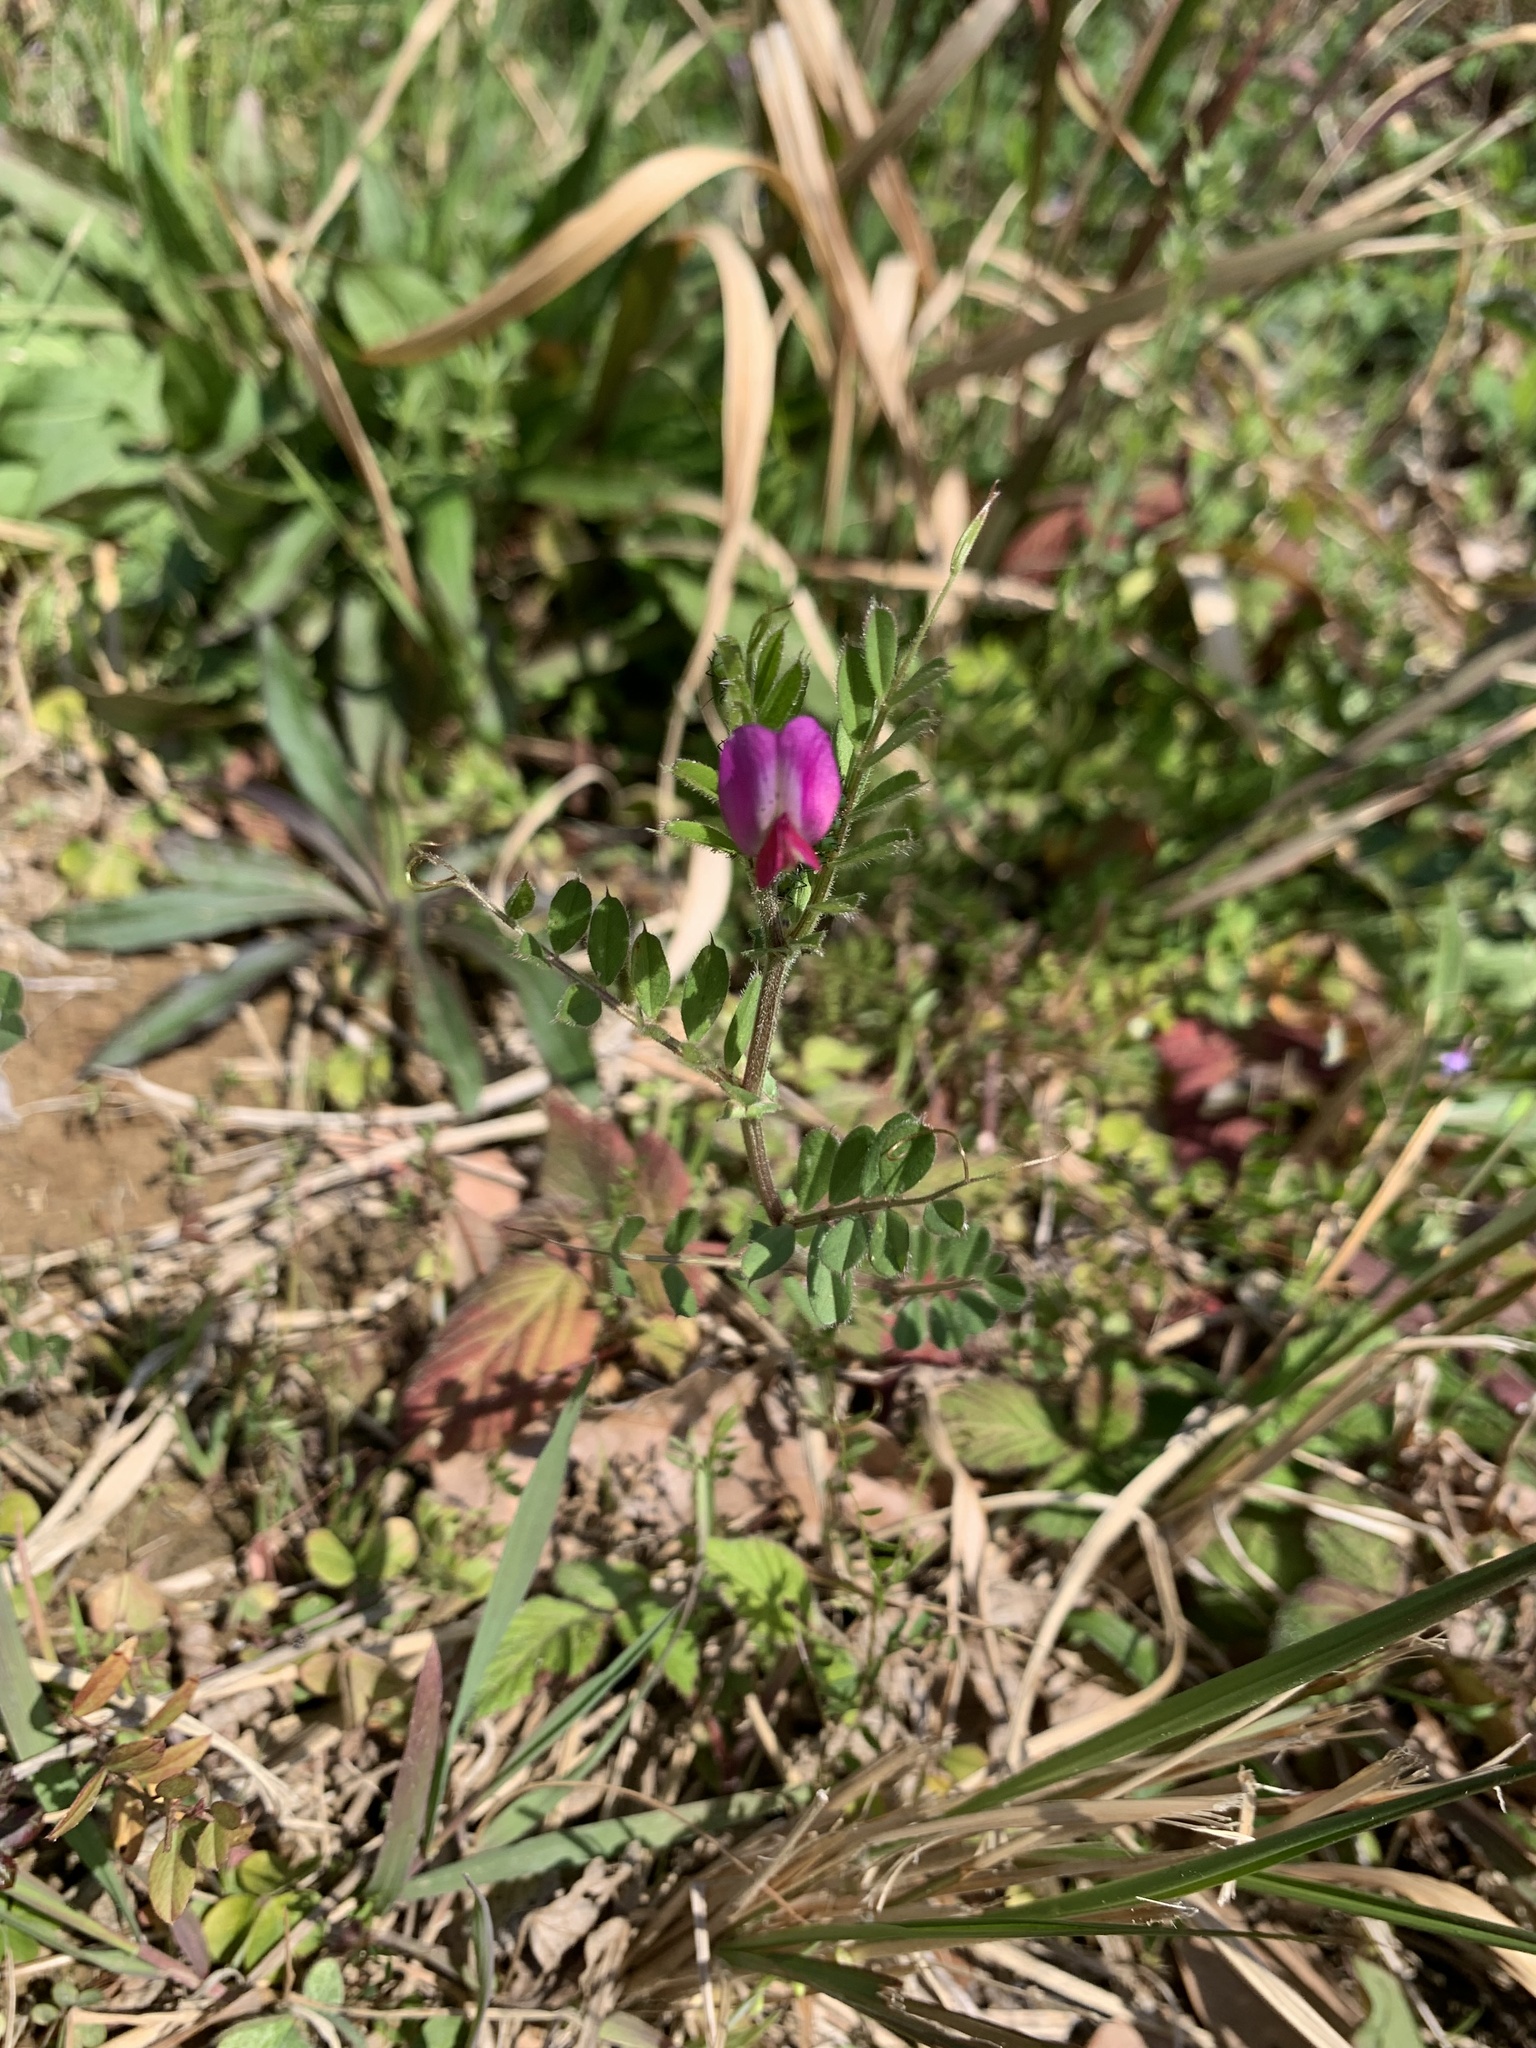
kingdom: Plantae
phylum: Tracheophyta
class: Magnoliopsida
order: Fabales
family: Fabaceae
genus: Vicia
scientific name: Vicia sativa
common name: Garden vetch
